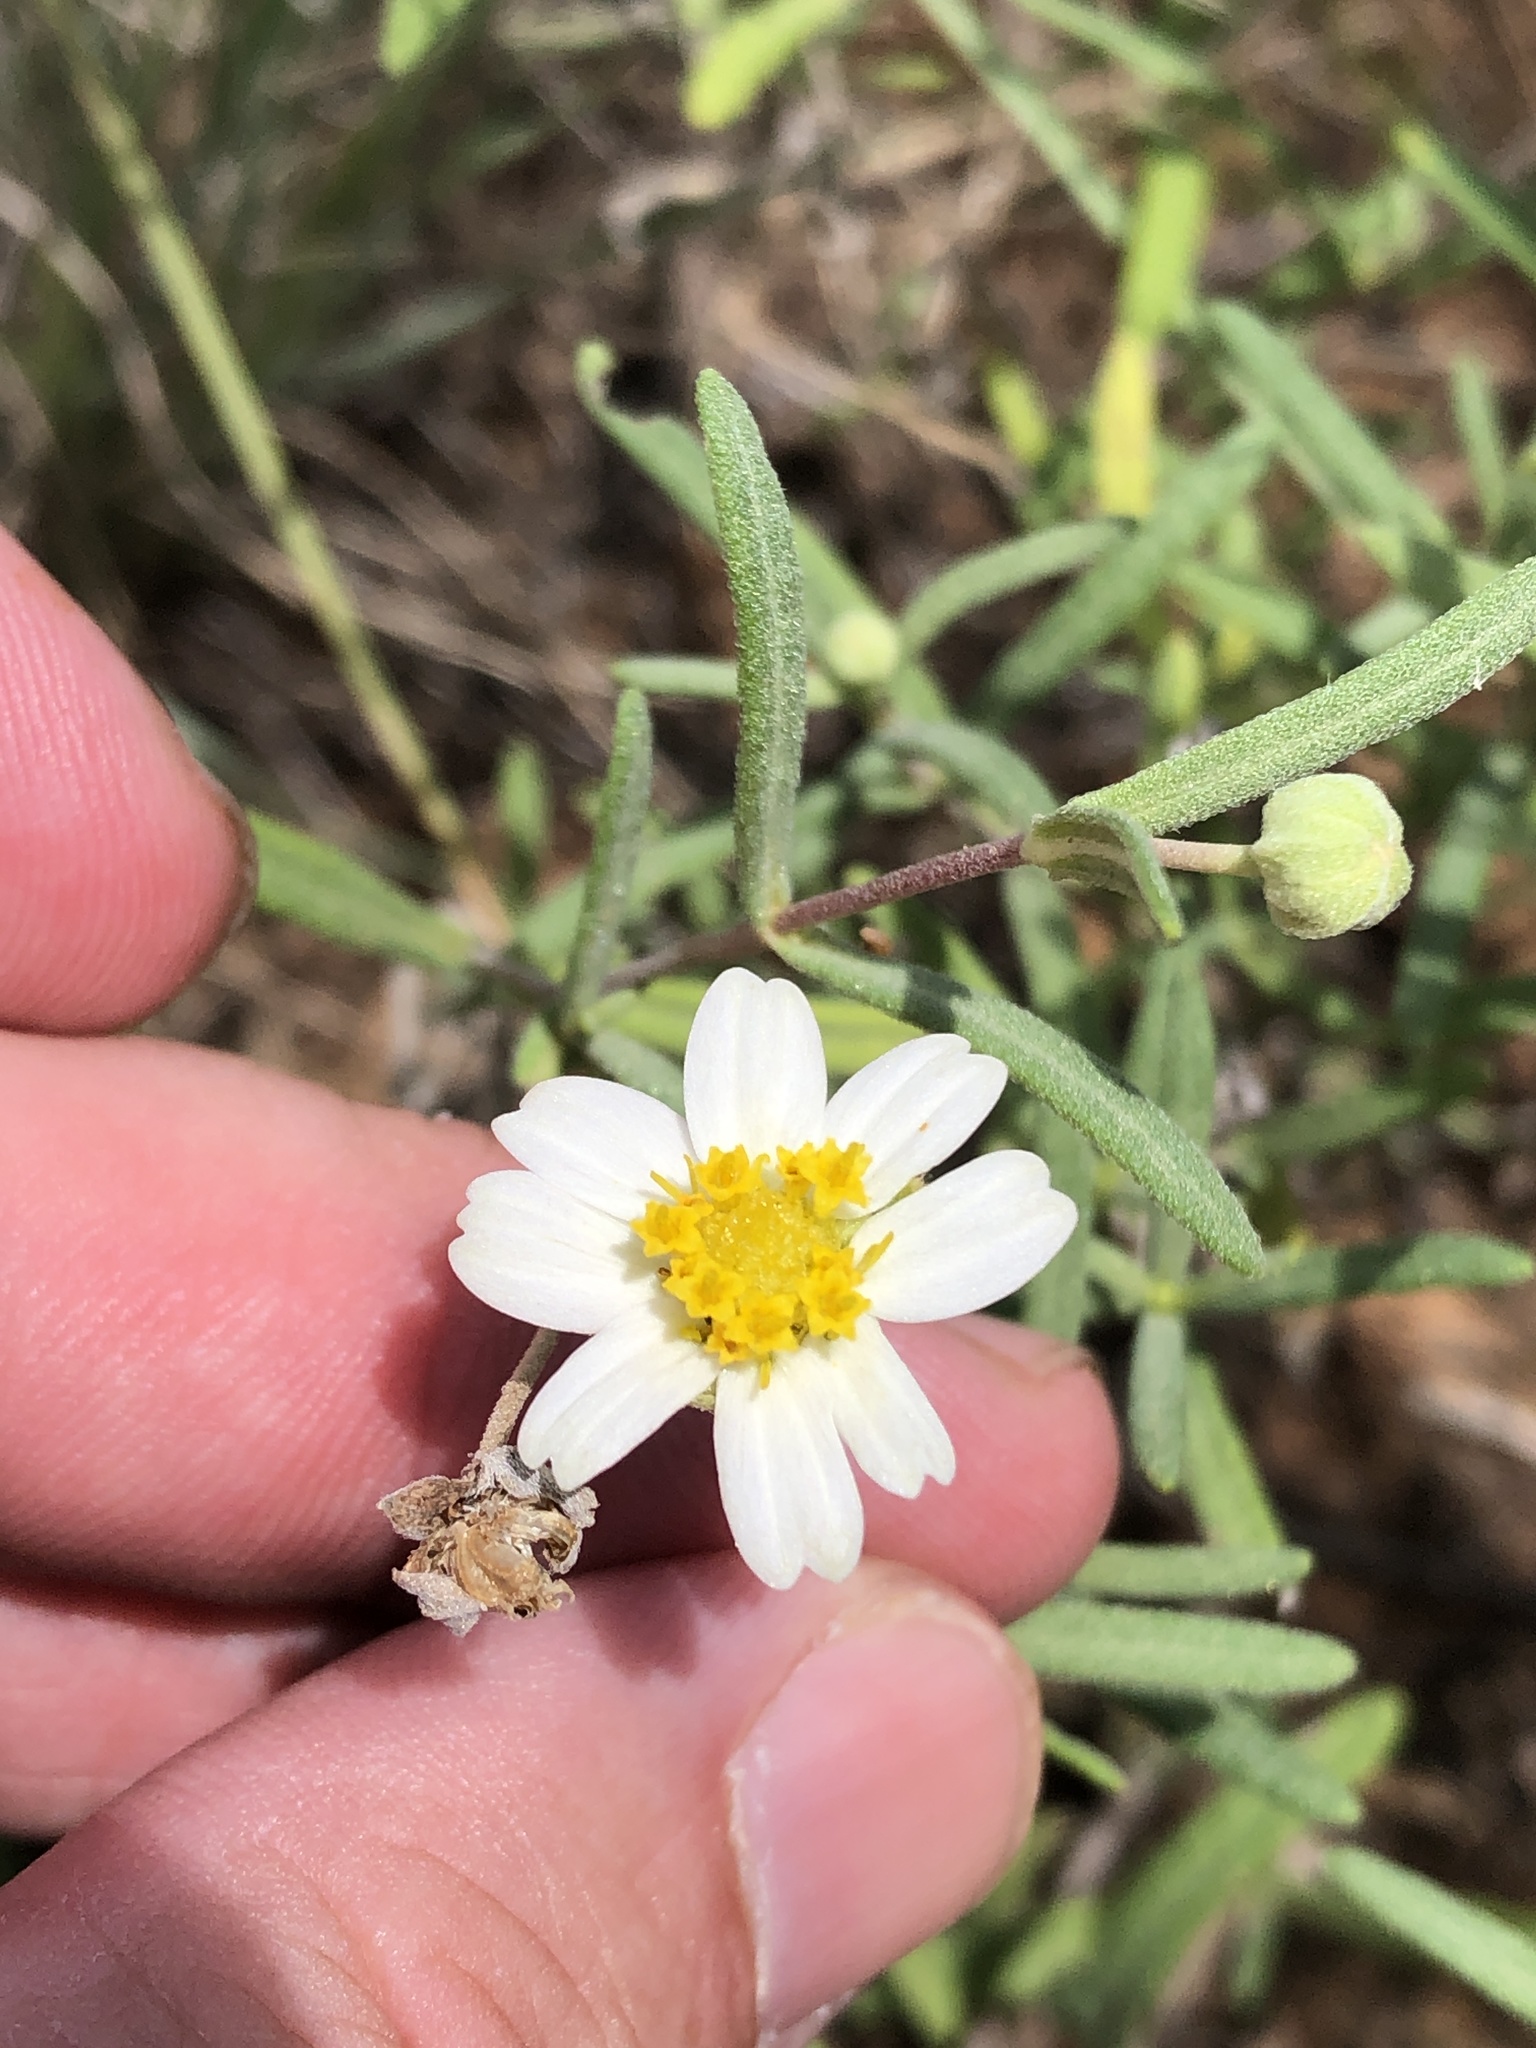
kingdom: Plantae
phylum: Tracheophyta
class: Magnoliopsida
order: Asterales
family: Asteraceae
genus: Melampodium
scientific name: Melampodium leucanthum
